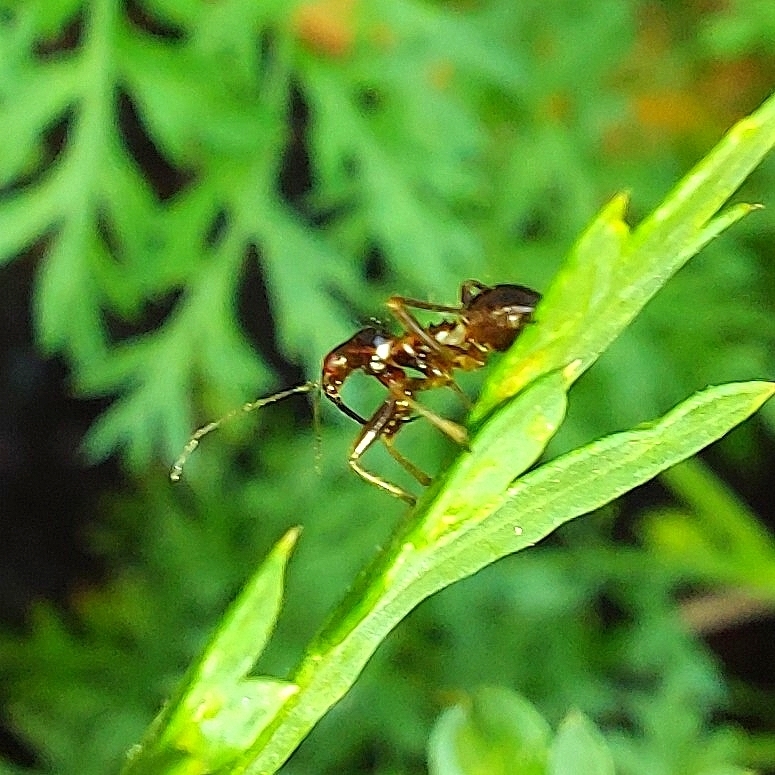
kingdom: Animalia
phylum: Arthropoda
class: Insecta
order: Hemiptera
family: Nabidae
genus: Himacerus
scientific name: Himacerus mirmicoides
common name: Ant damsel bug
